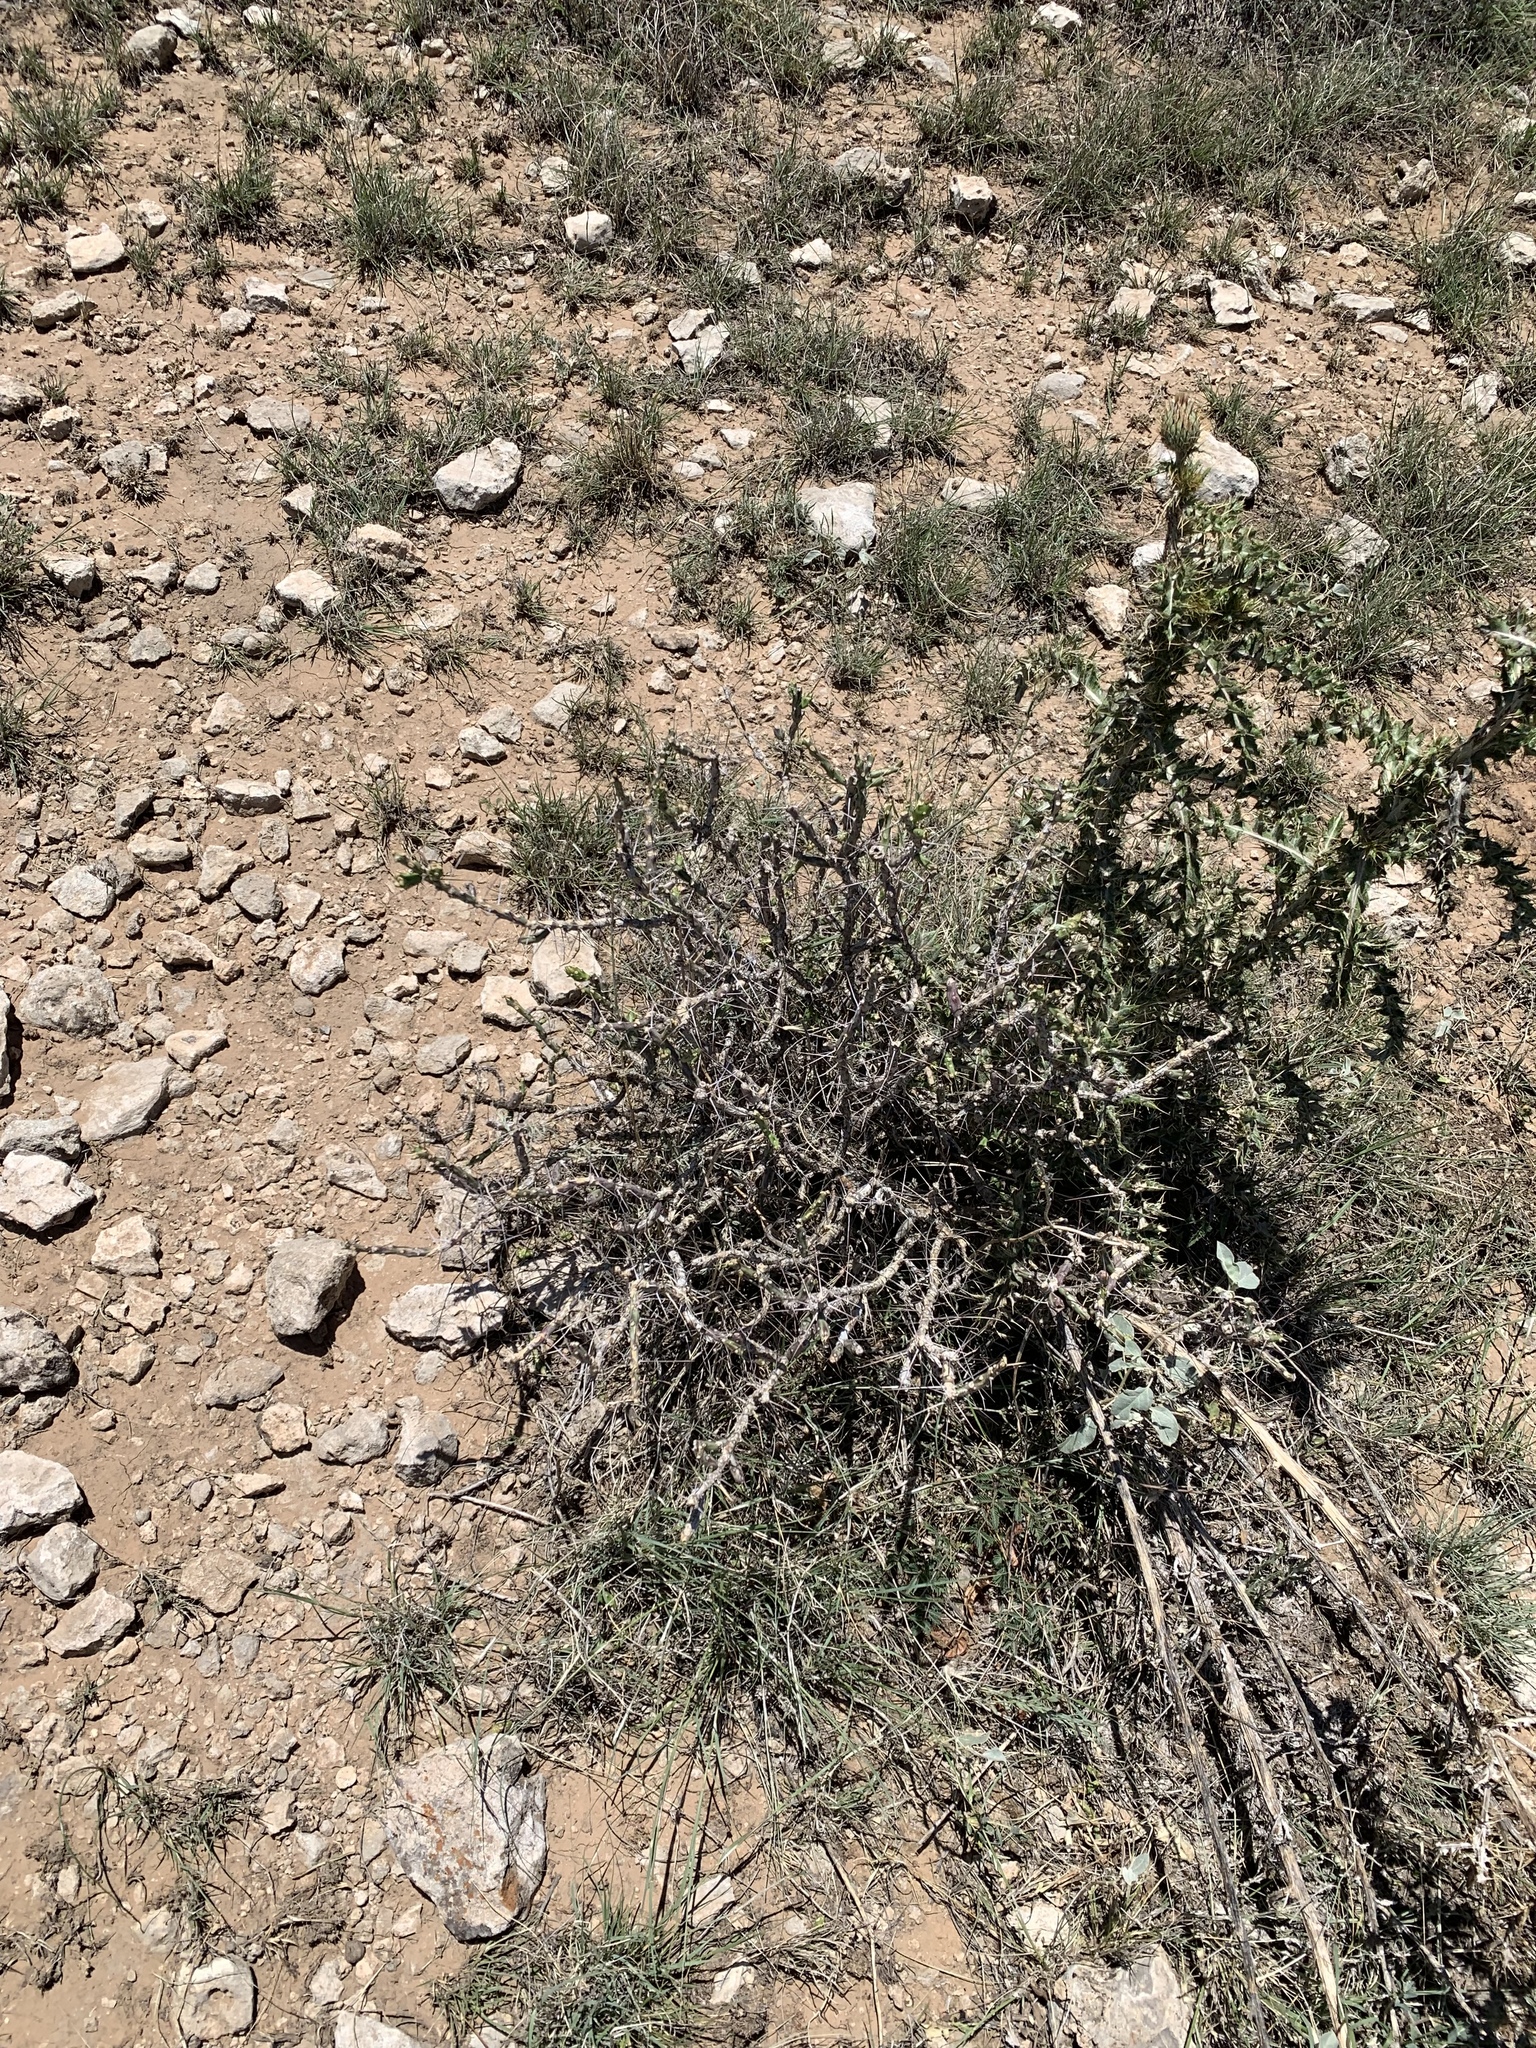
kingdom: Plantae
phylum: Tracheophyta
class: Magnoliopsida
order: Caryophyllales
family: Cactaceae
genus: Cylindropuntia
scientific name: Cylindropuntia leptocaulis
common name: Christmas cactus
